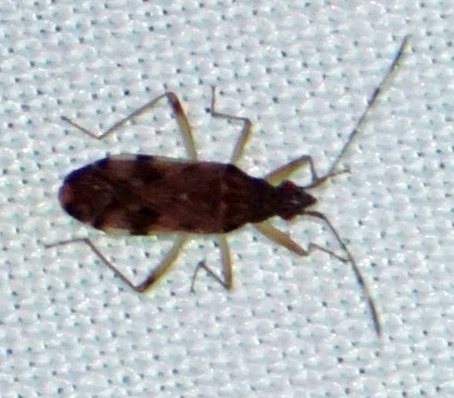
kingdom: Animalia
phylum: Arthropoda
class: Insecta
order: Hemiptera
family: Rhyparochromidae
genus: Ozophora
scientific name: Ozophora picturata
